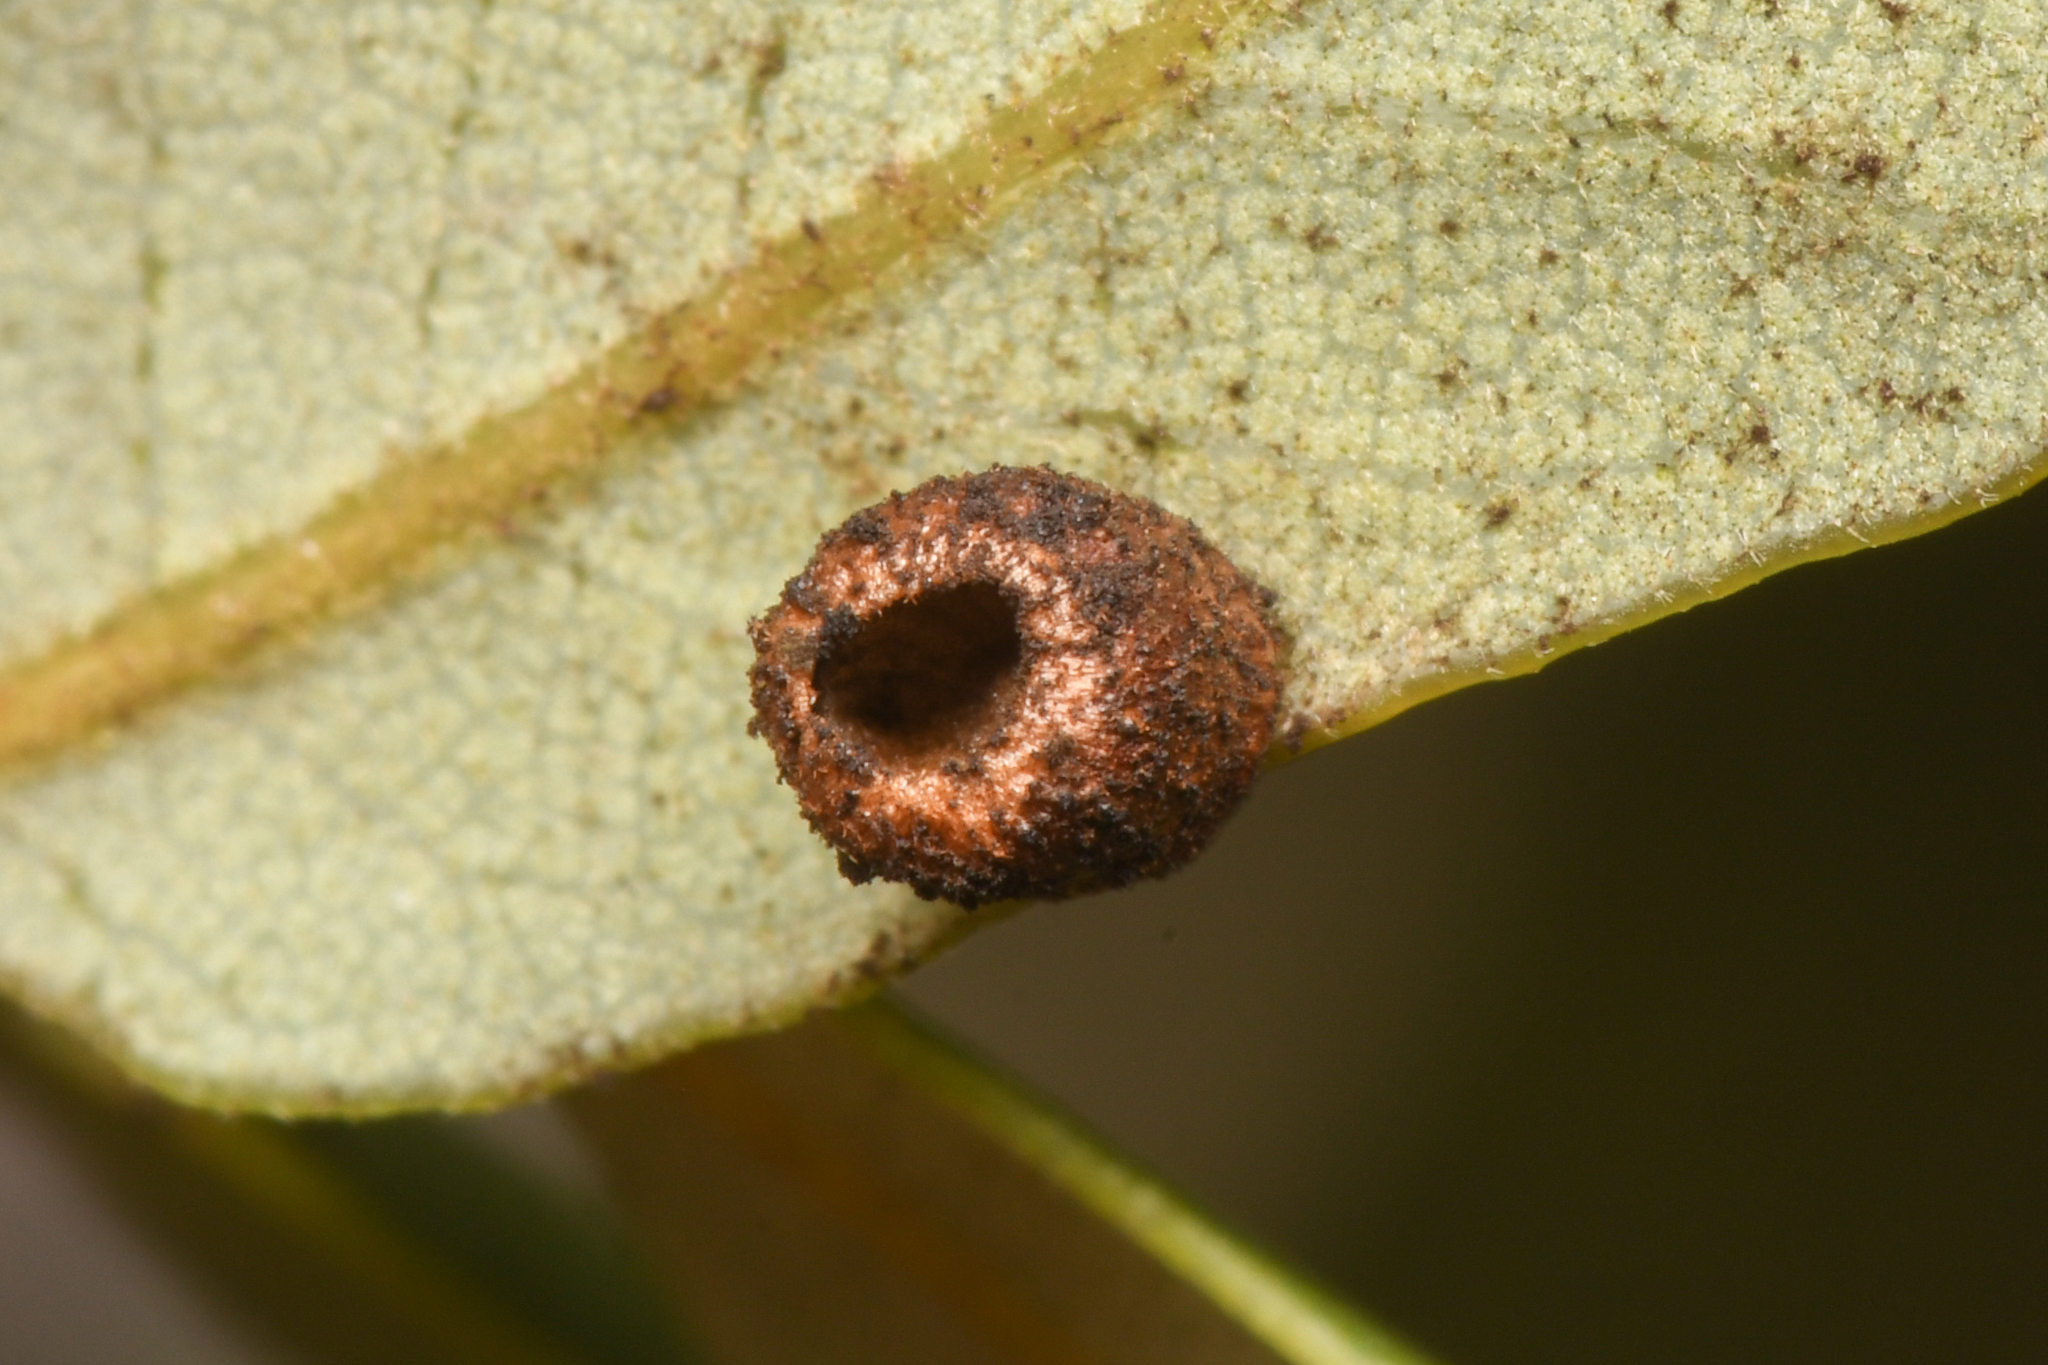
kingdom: Animalia
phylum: Arthropoda
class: Insecta
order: Hymenoptera
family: Cynipidae
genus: Phylloteras
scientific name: Phylloteras
